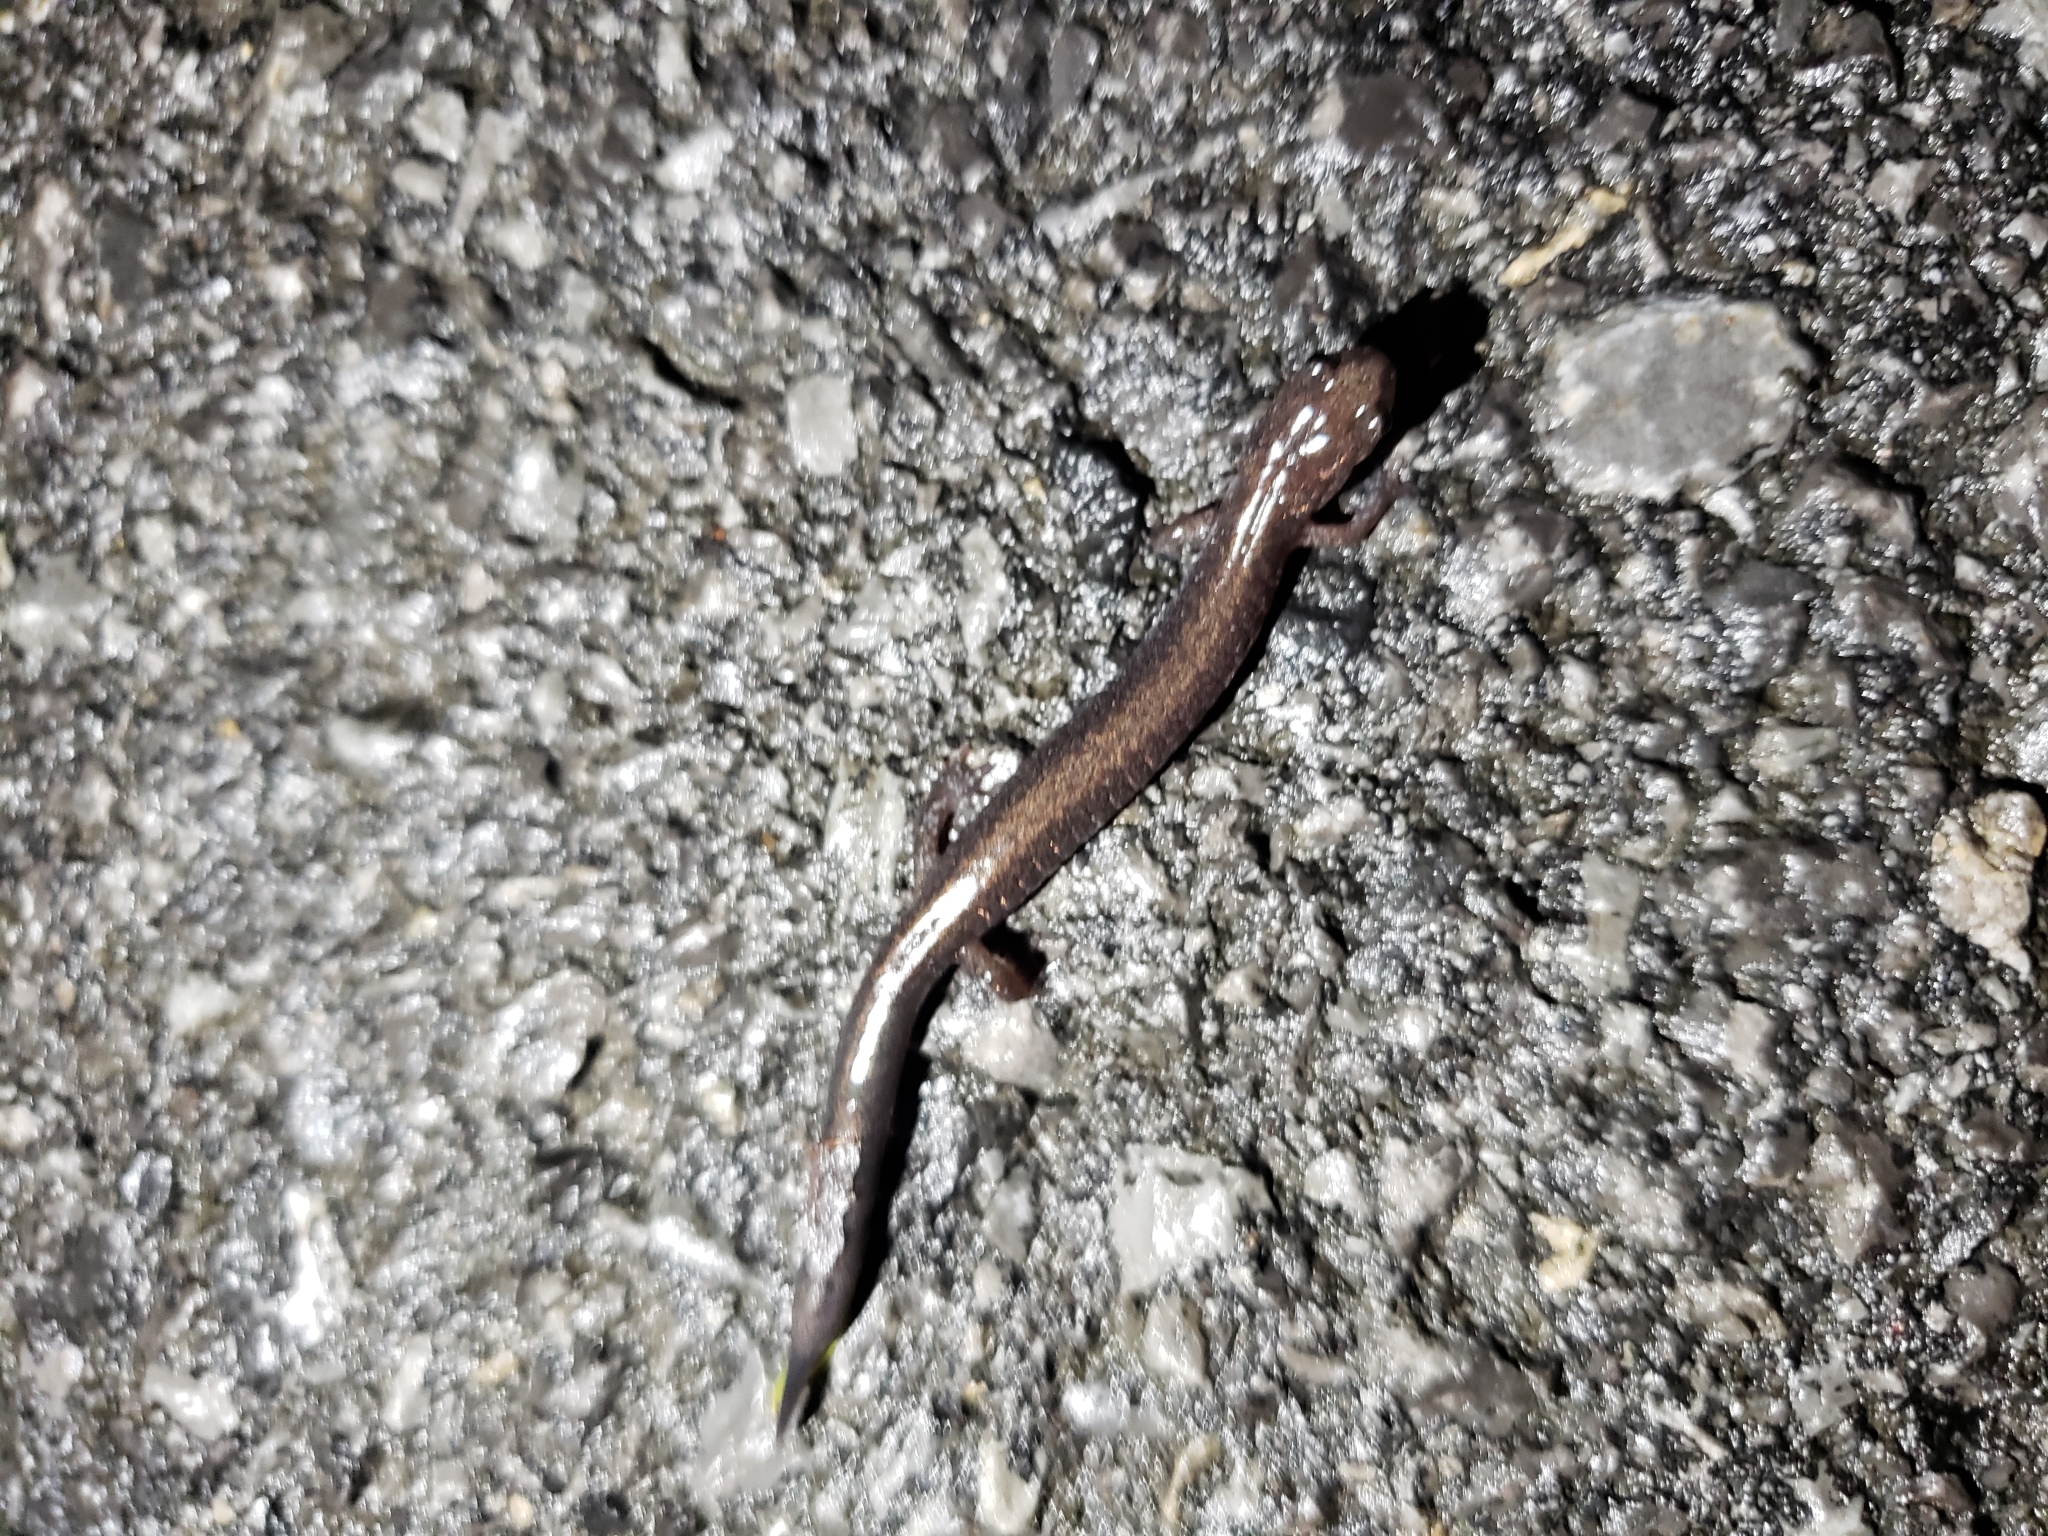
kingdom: Animalia
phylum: Chordata
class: Amphibia
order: Caudata
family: Plethodontidae
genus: Plethodon
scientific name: Plethodon cinereus
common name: Redback salamander
